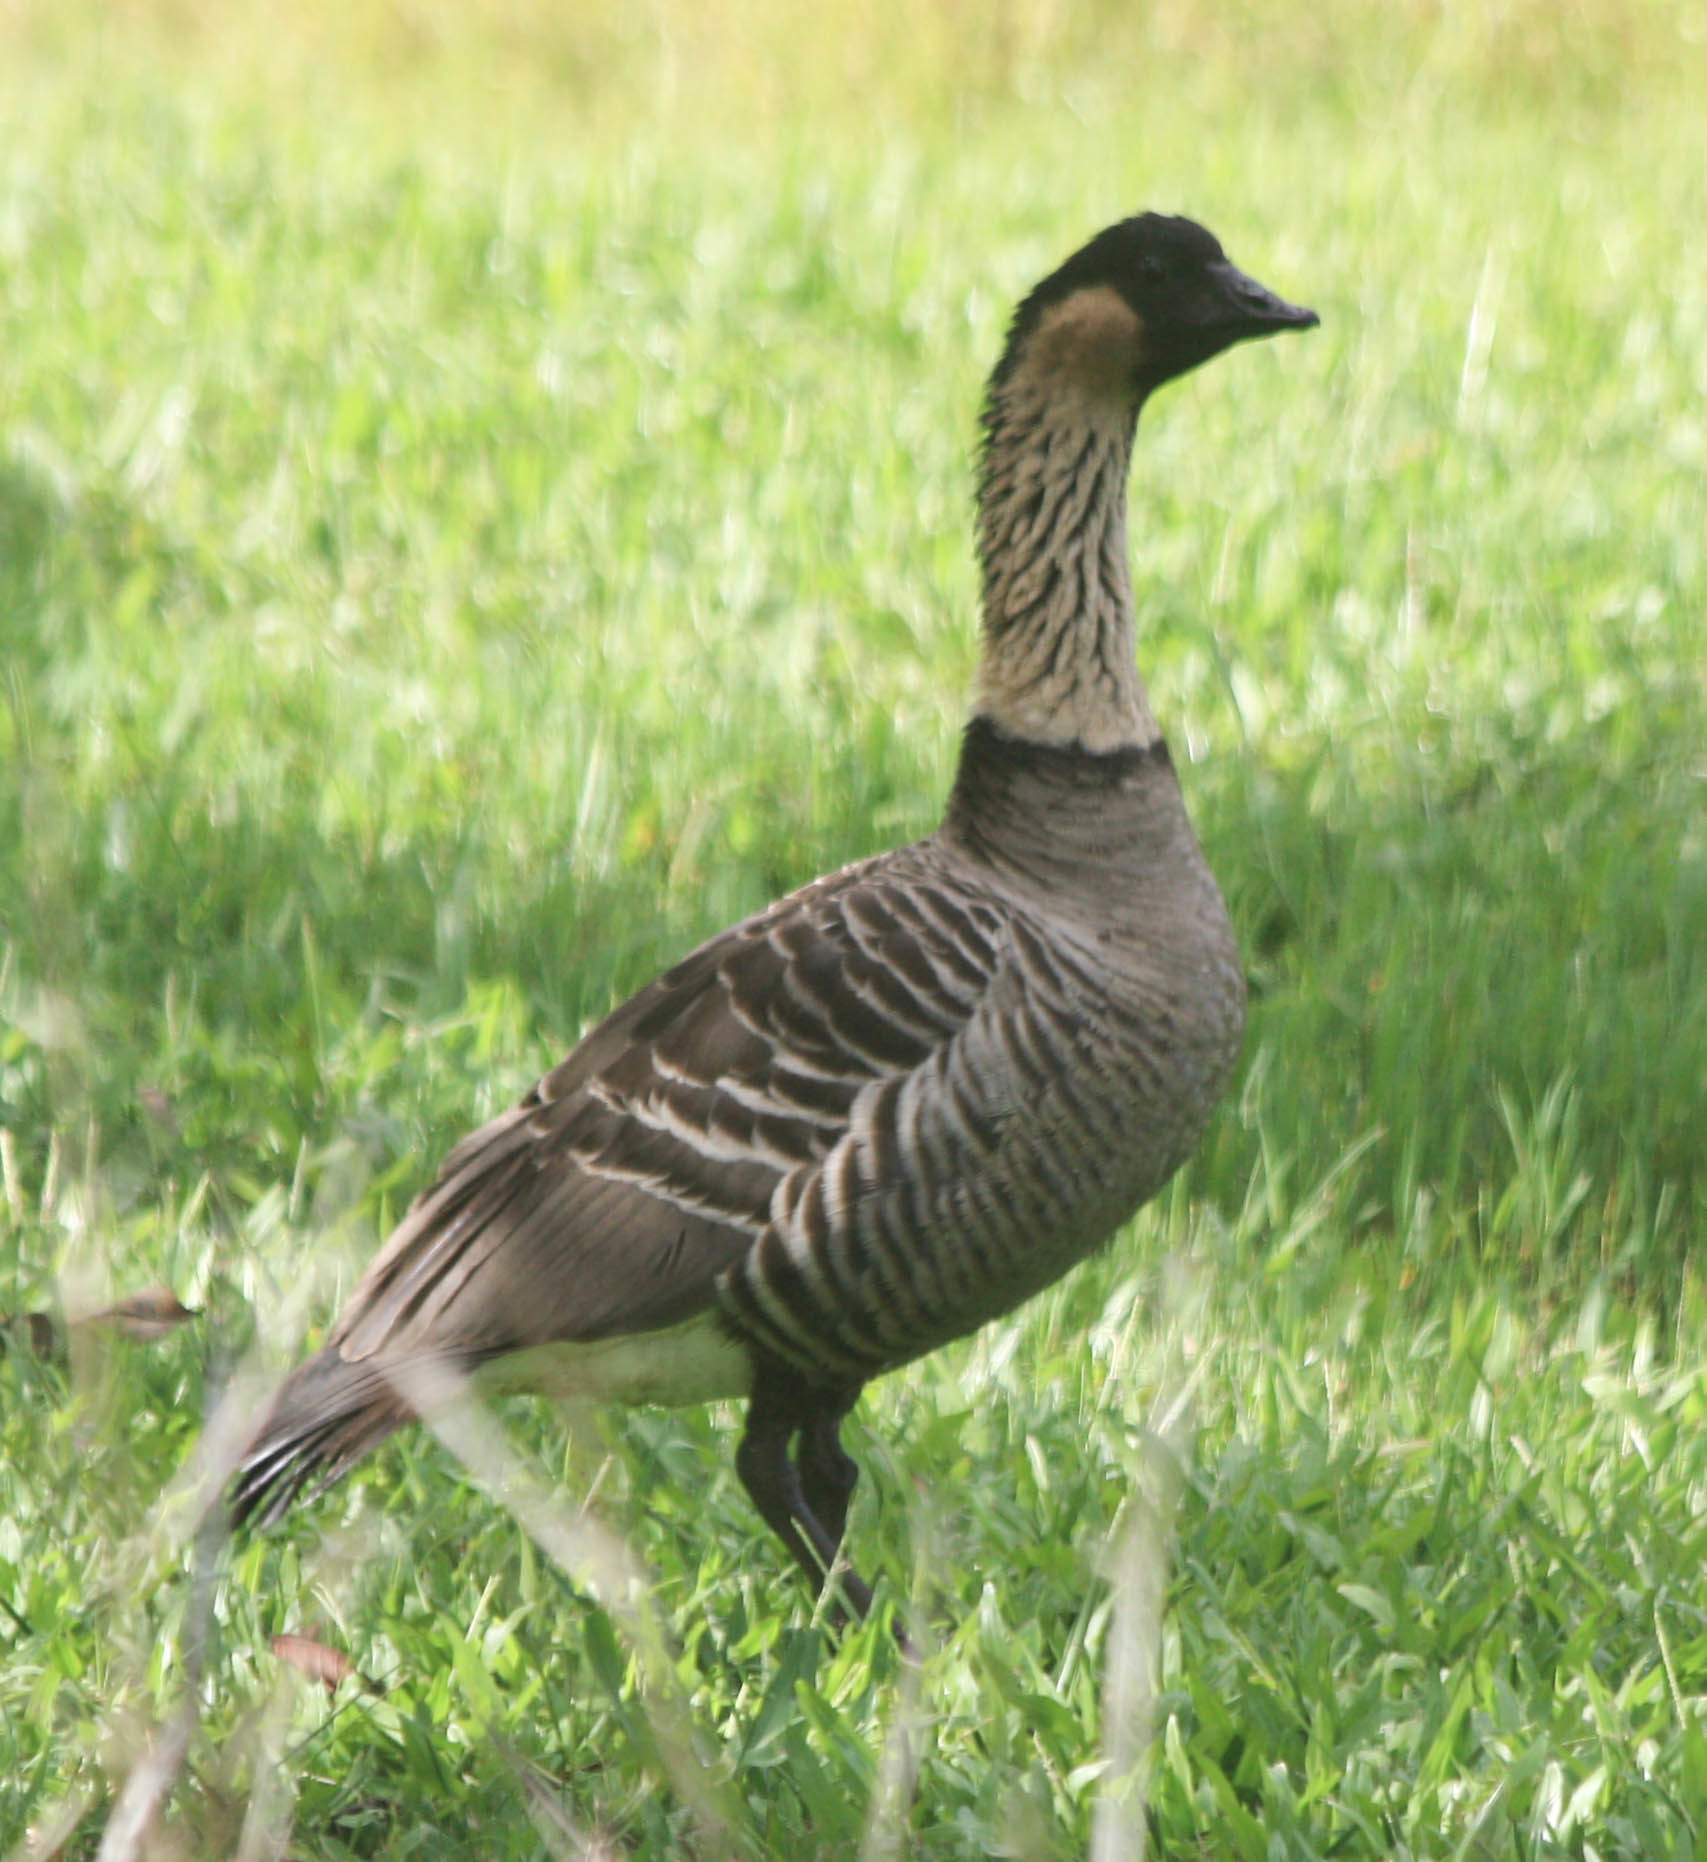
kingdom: Animalia
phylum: Chordata
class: Aves
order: Anseriformes
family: Anatidae
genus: Branta
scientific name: Branta sandvicensis
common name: Nene
